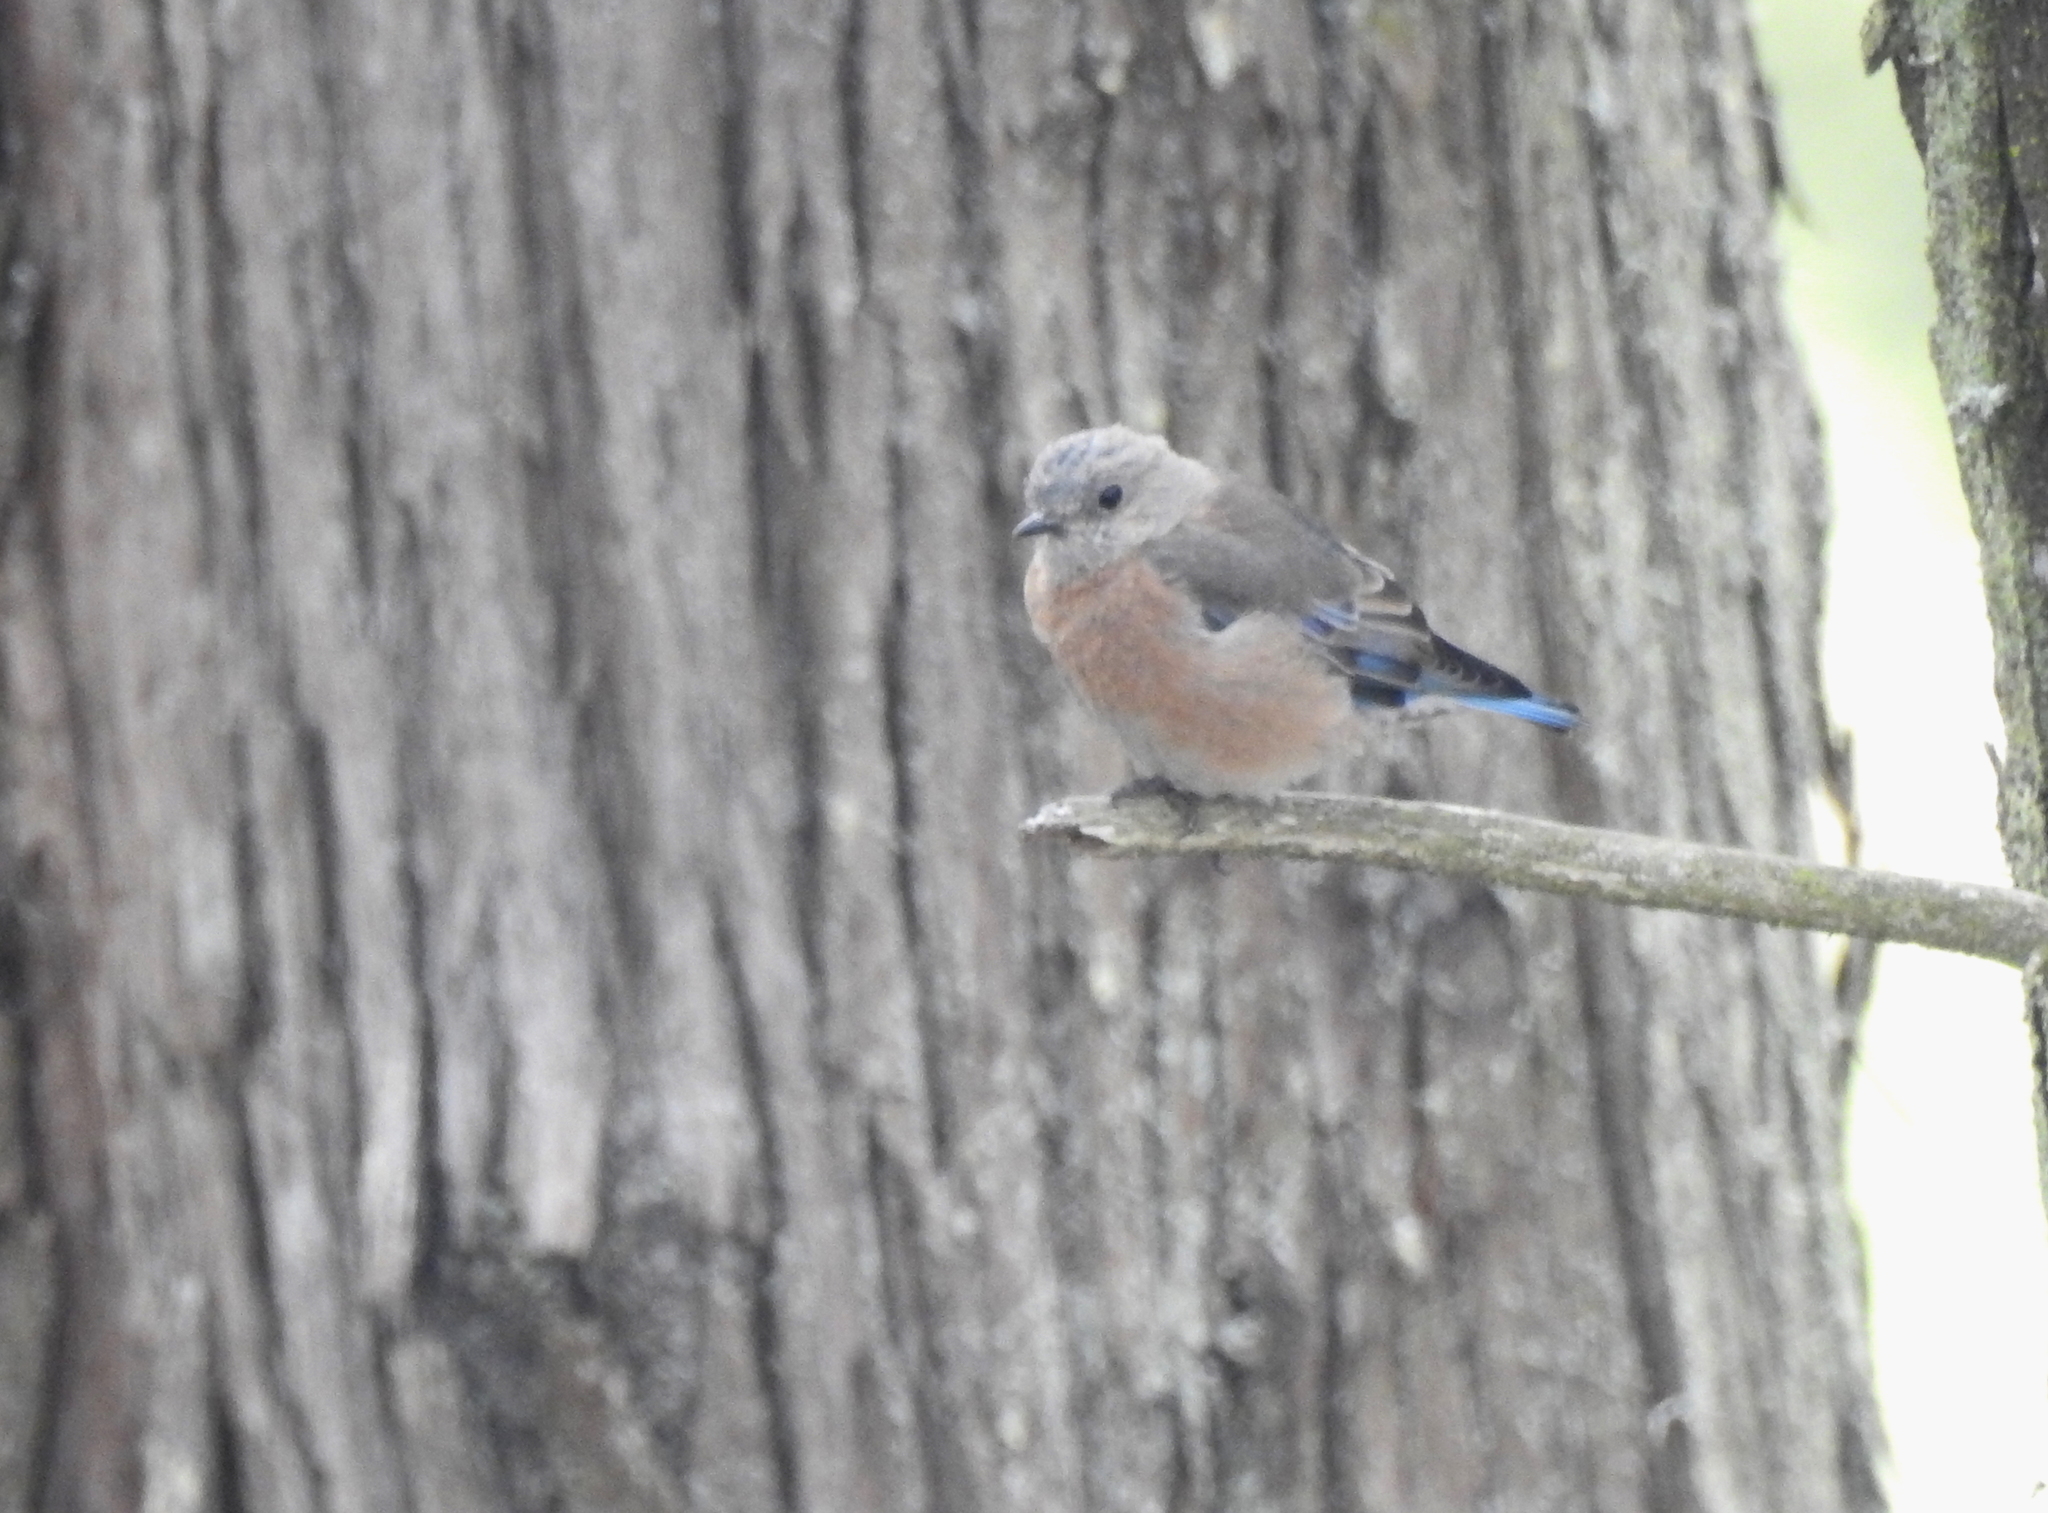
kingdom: Animalia
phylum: Chordata
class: Aves
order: Passeriformes
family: Turdidae
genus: Sialia
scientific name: Sialia mexicana
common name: Western bluebird
